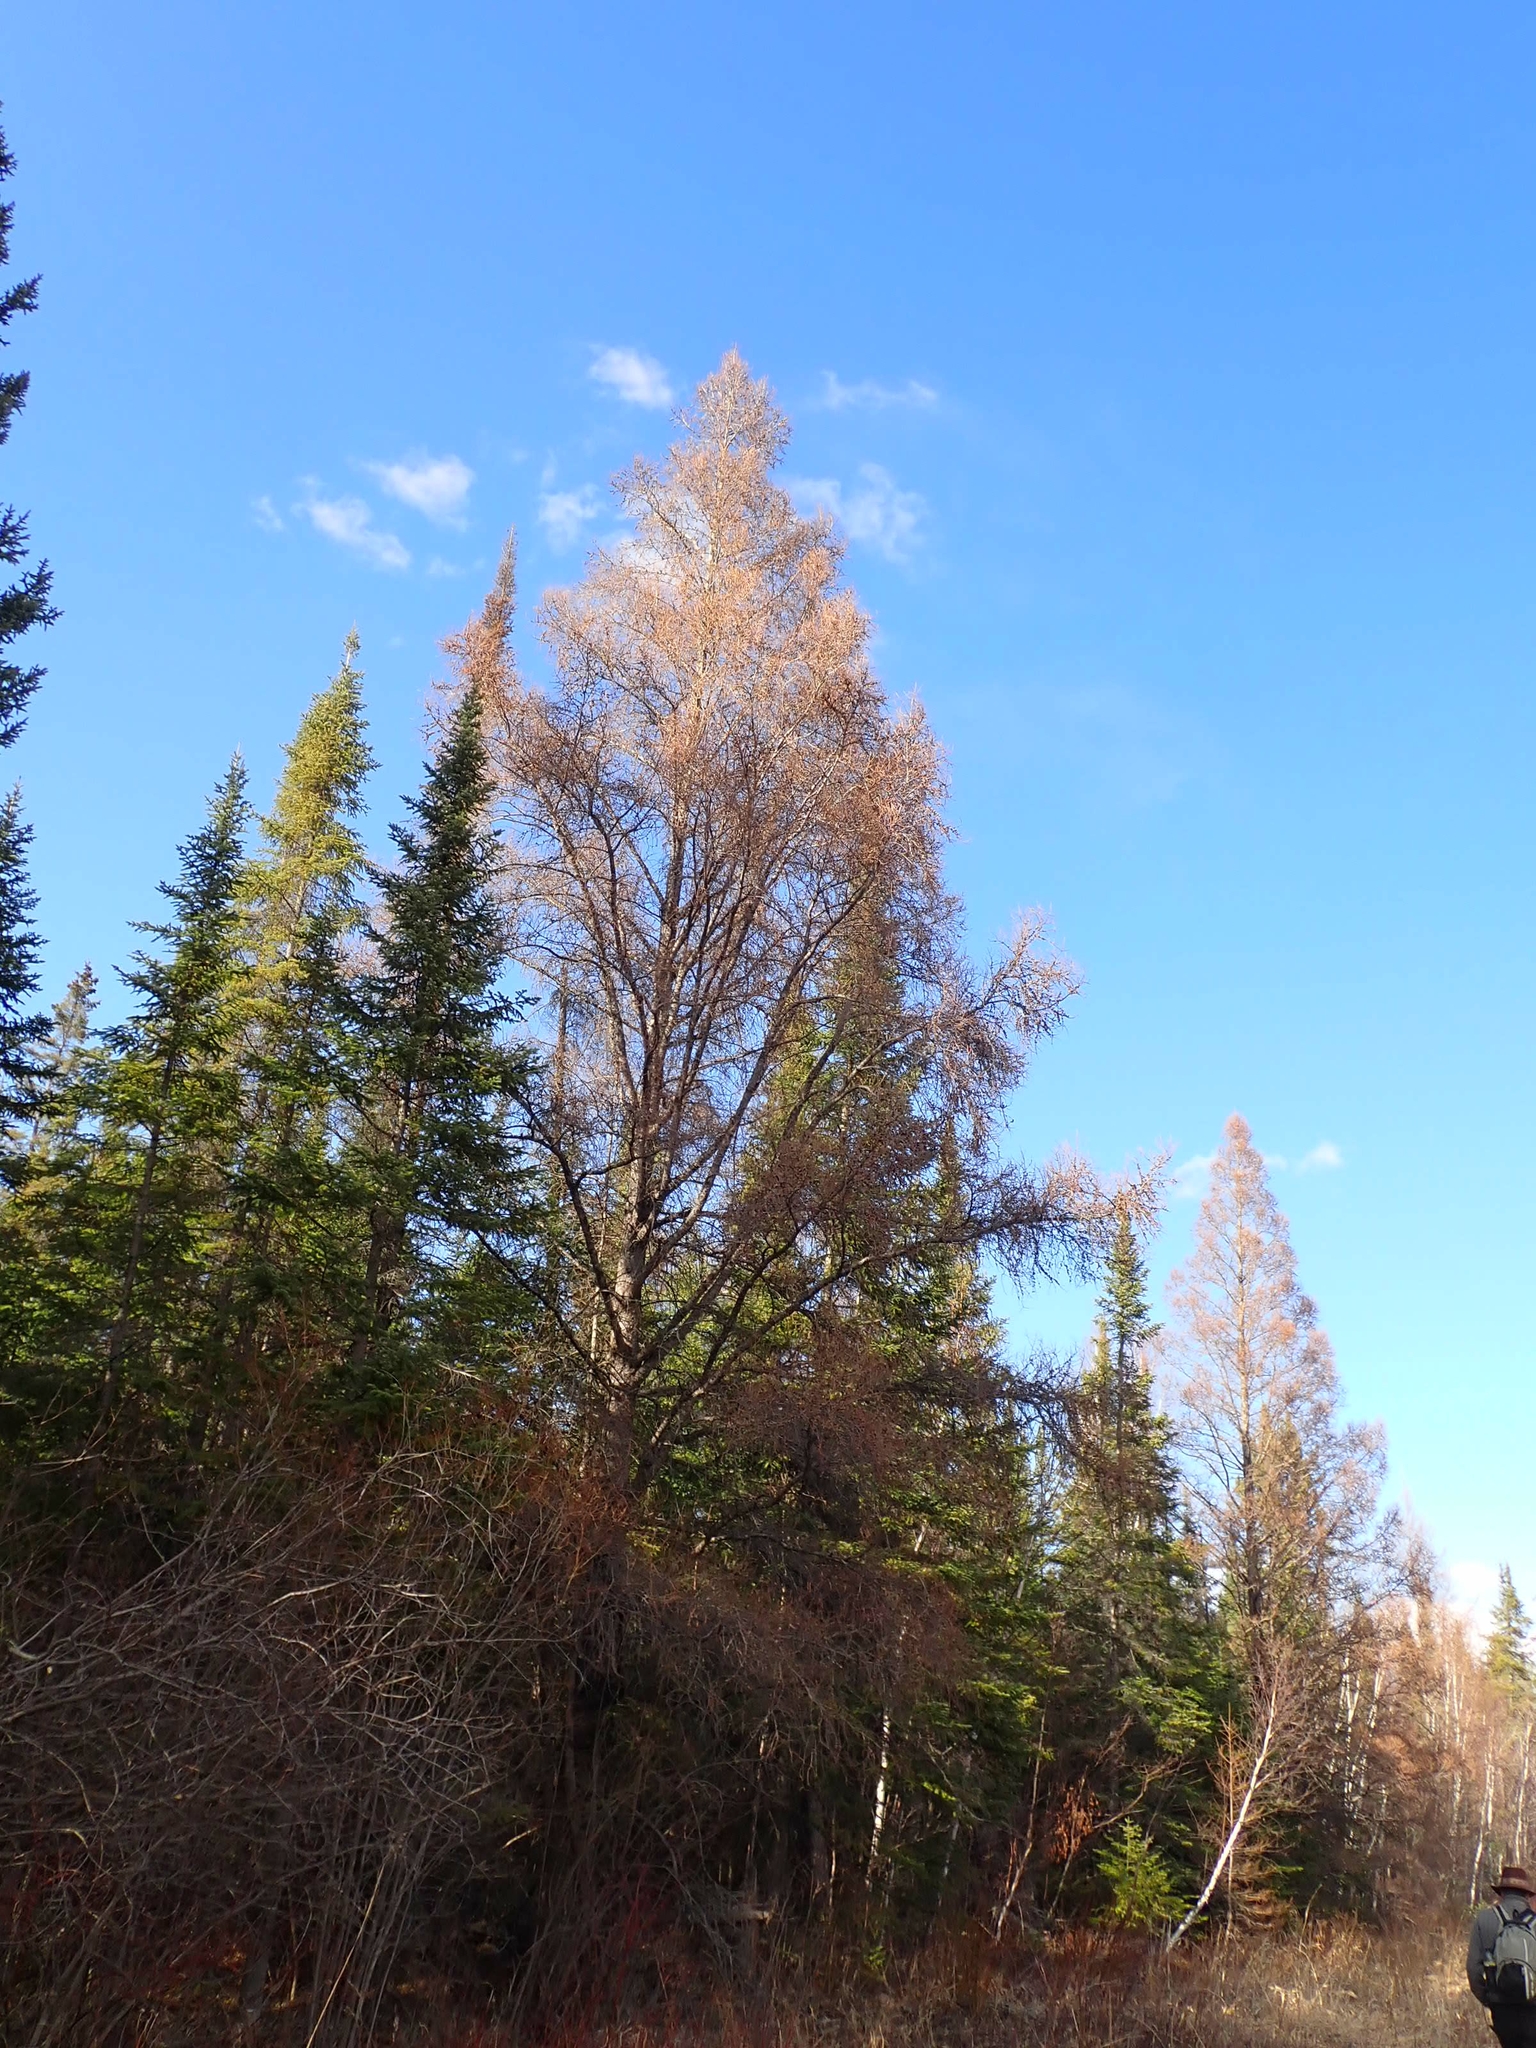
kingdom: Plantae
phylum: Tracheophyta
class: Pinopsida
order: Pinales
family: Pinaceae
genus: Larix
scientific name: Larix laricina
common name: American larch
